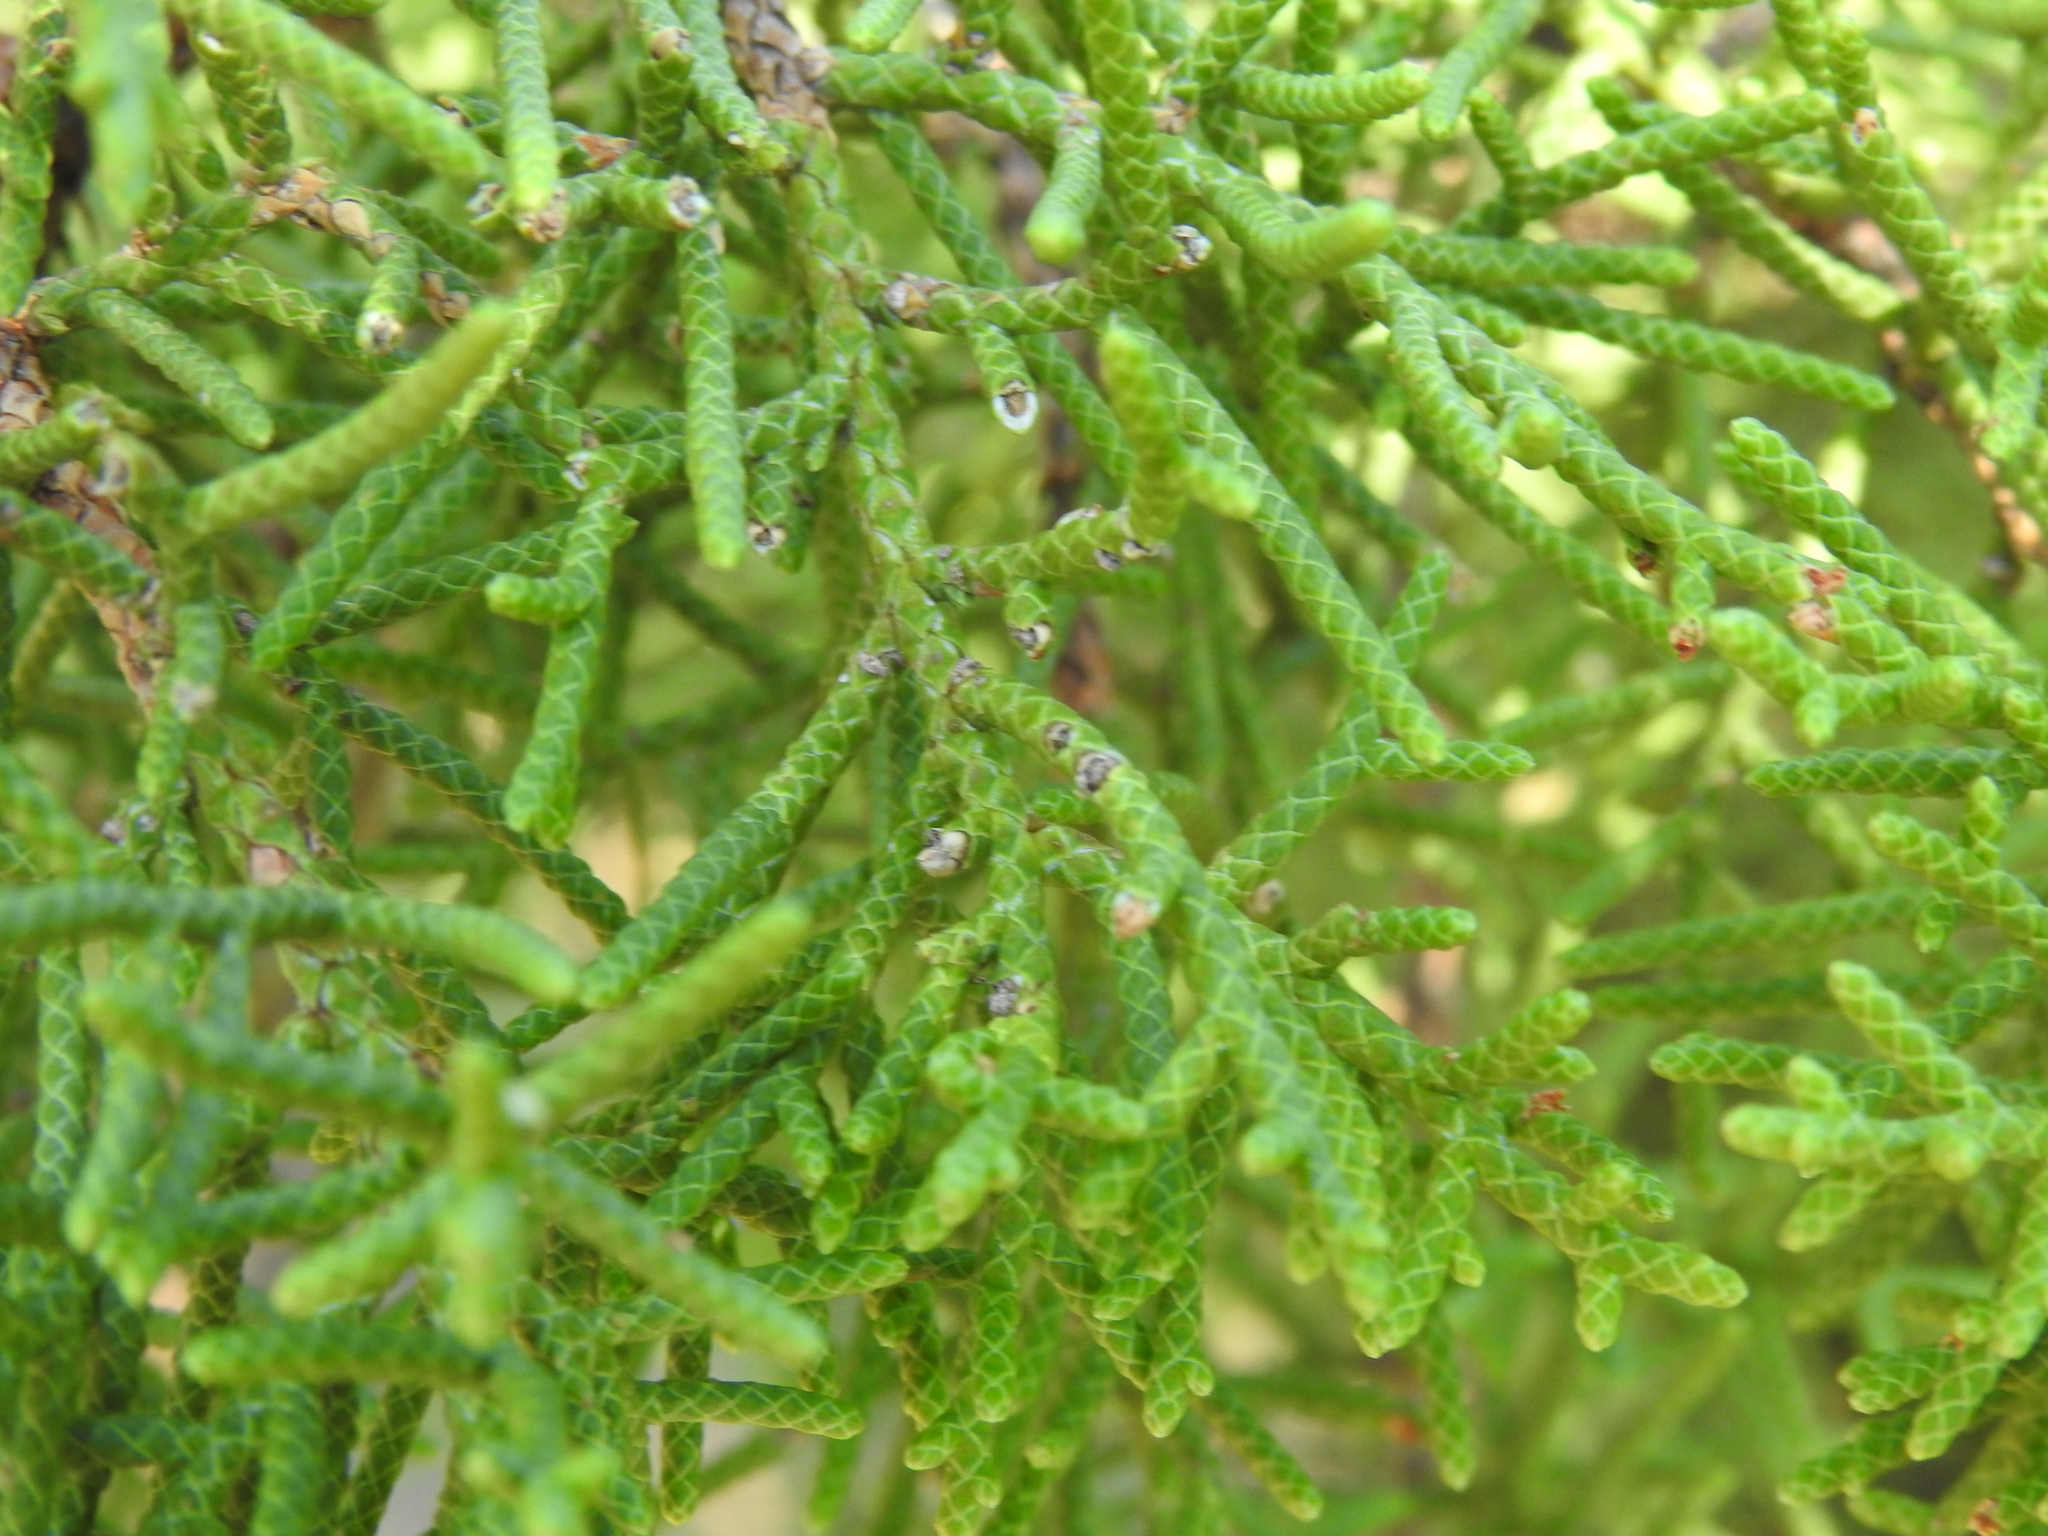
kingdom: Plantae
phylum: Tracheophyta
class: Pinopsida
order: Pinales
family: Cupressaceae
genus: Juniperus
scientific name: Juniperus californica
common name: California juniper
